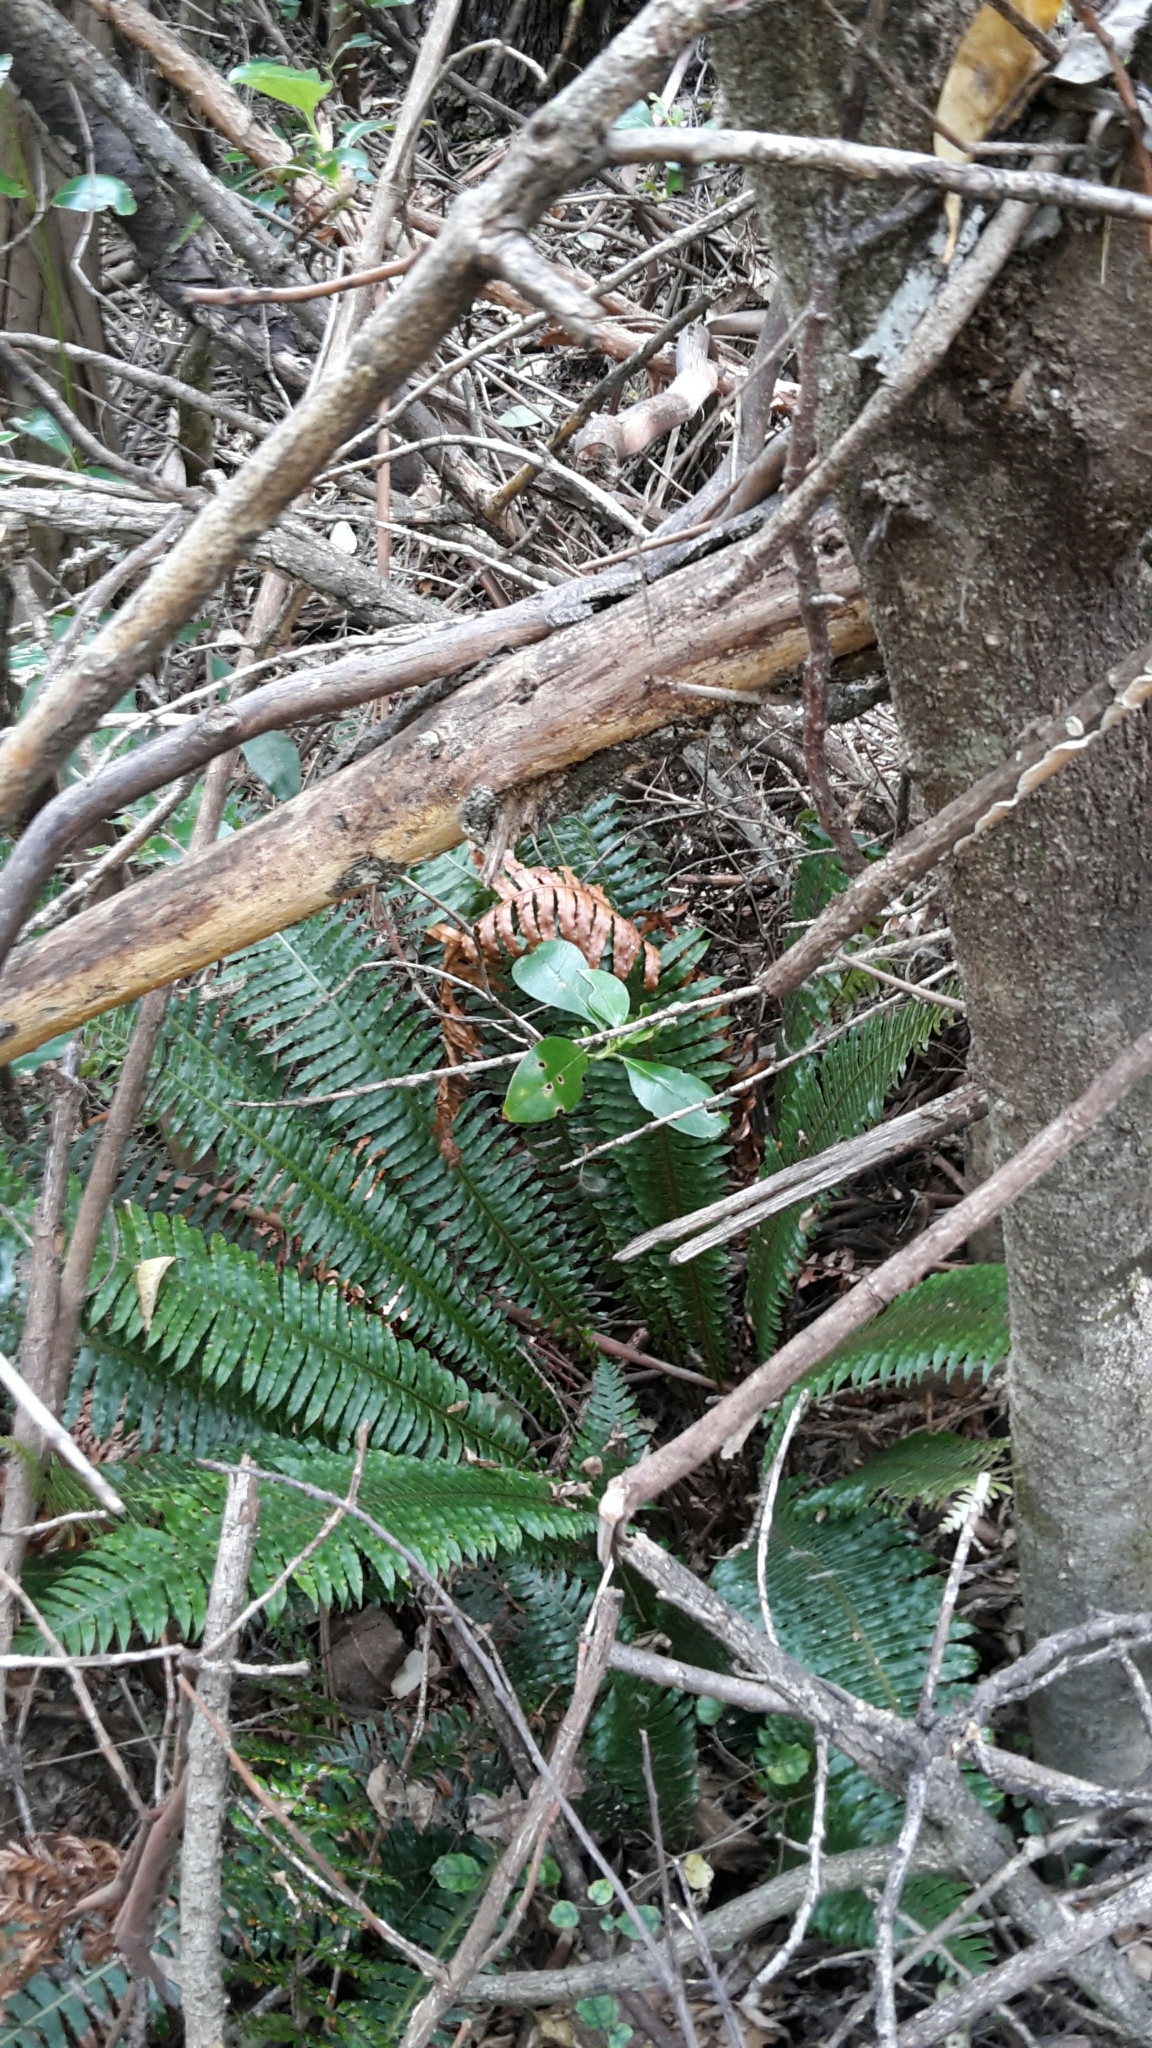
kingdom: Plantae
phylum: Tracheophyta
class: Polypodiopsida
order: Polypodiales
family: Blechnaceae
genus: Lomaria
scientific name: Lomaria discolor
